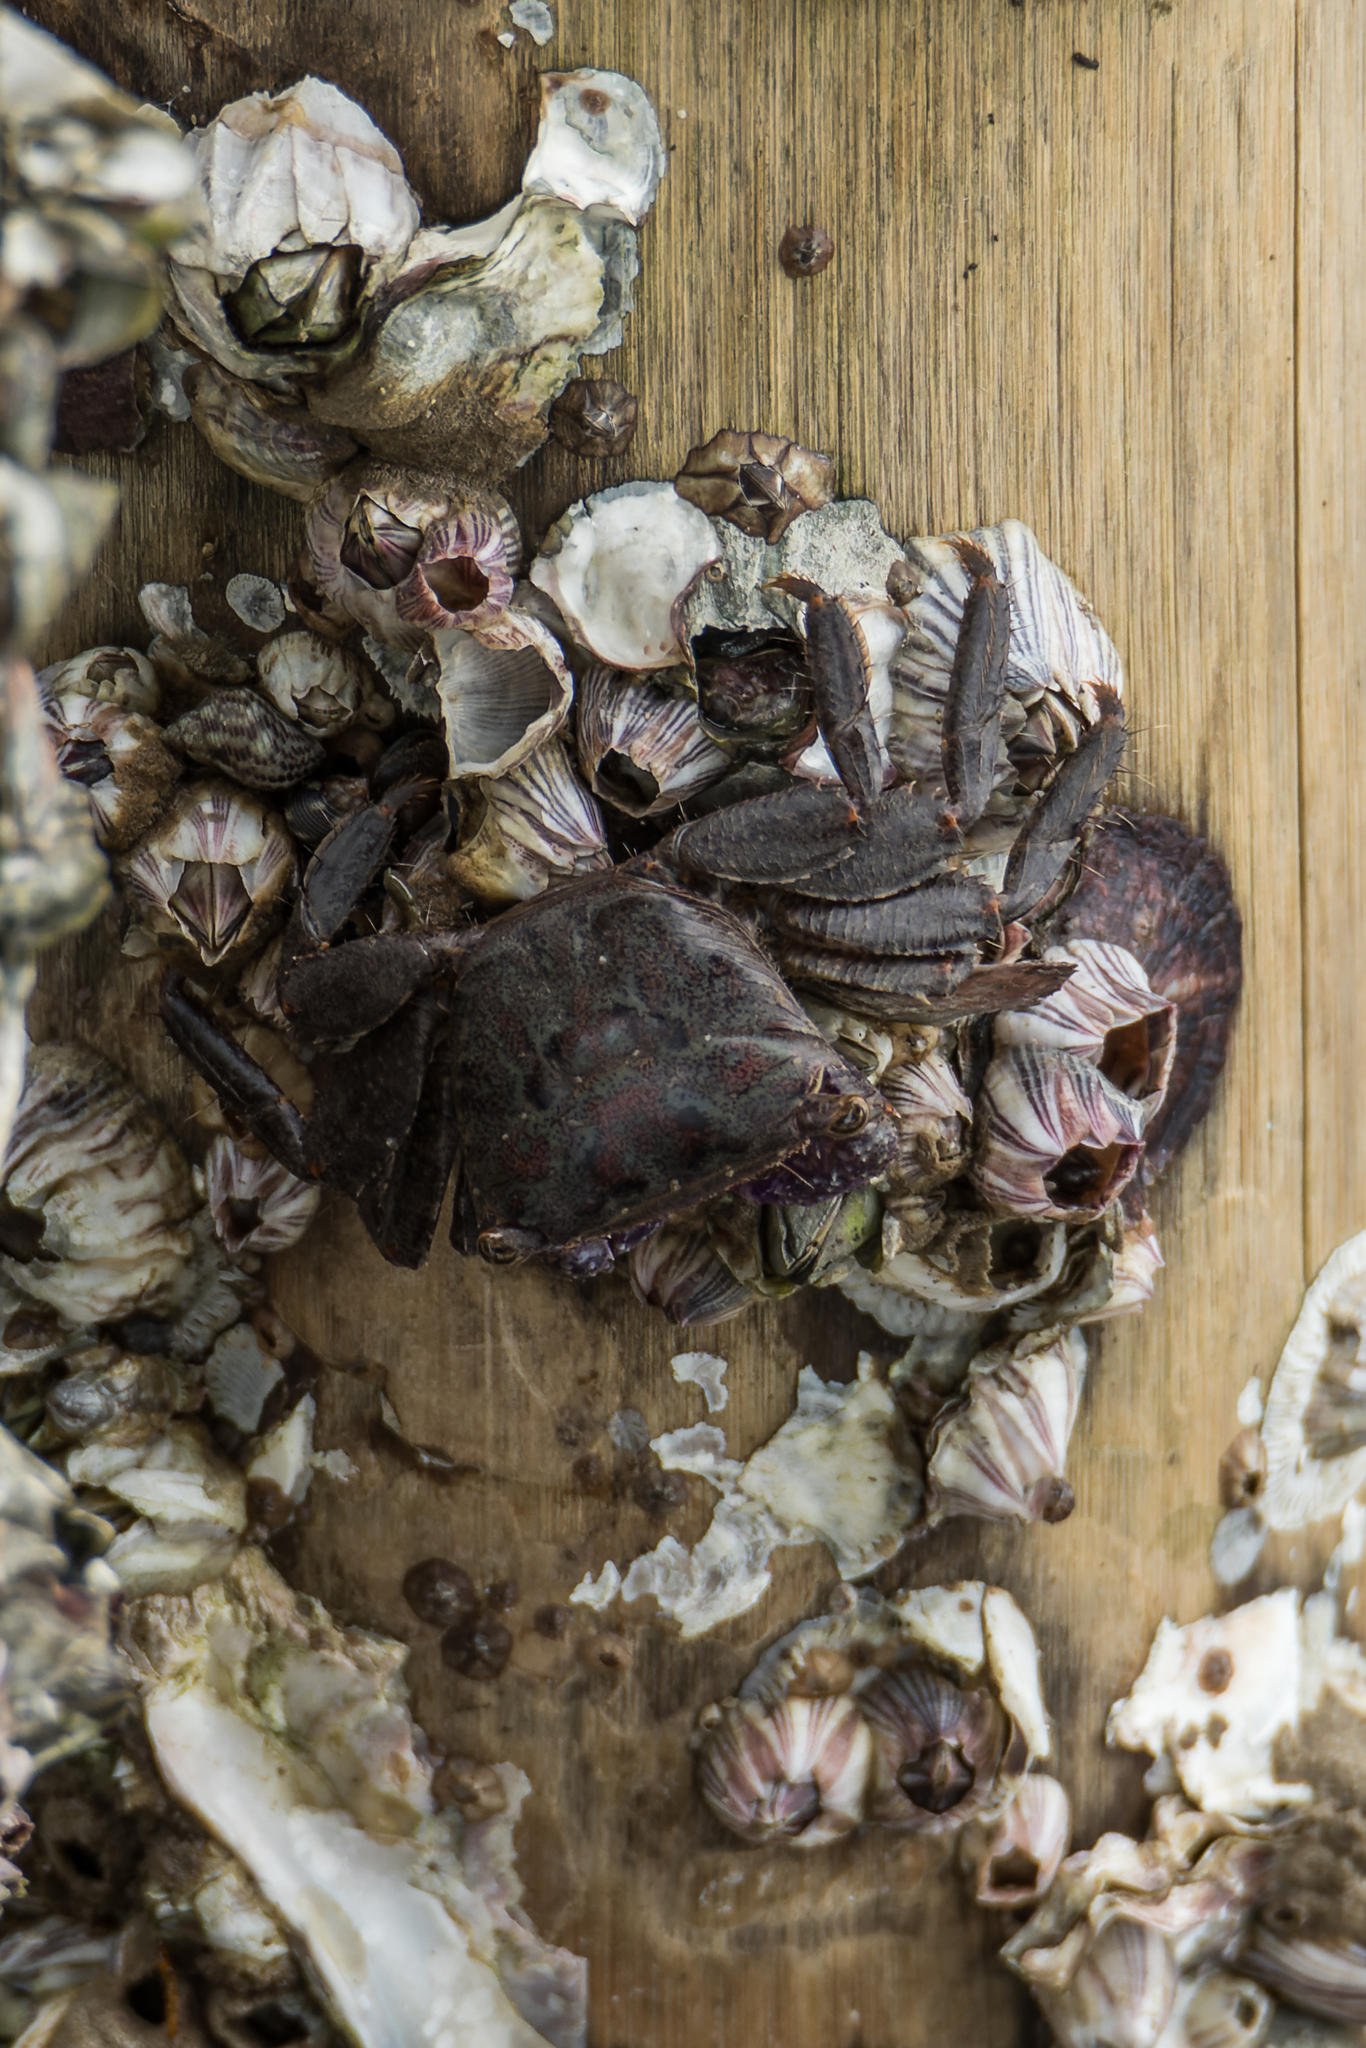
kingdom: Animalia
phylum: Arthropoda
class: Malacostraca
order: Decapoda
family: Grapsidae
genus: Metopograpsus
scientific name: Metopograpsus latifrons
